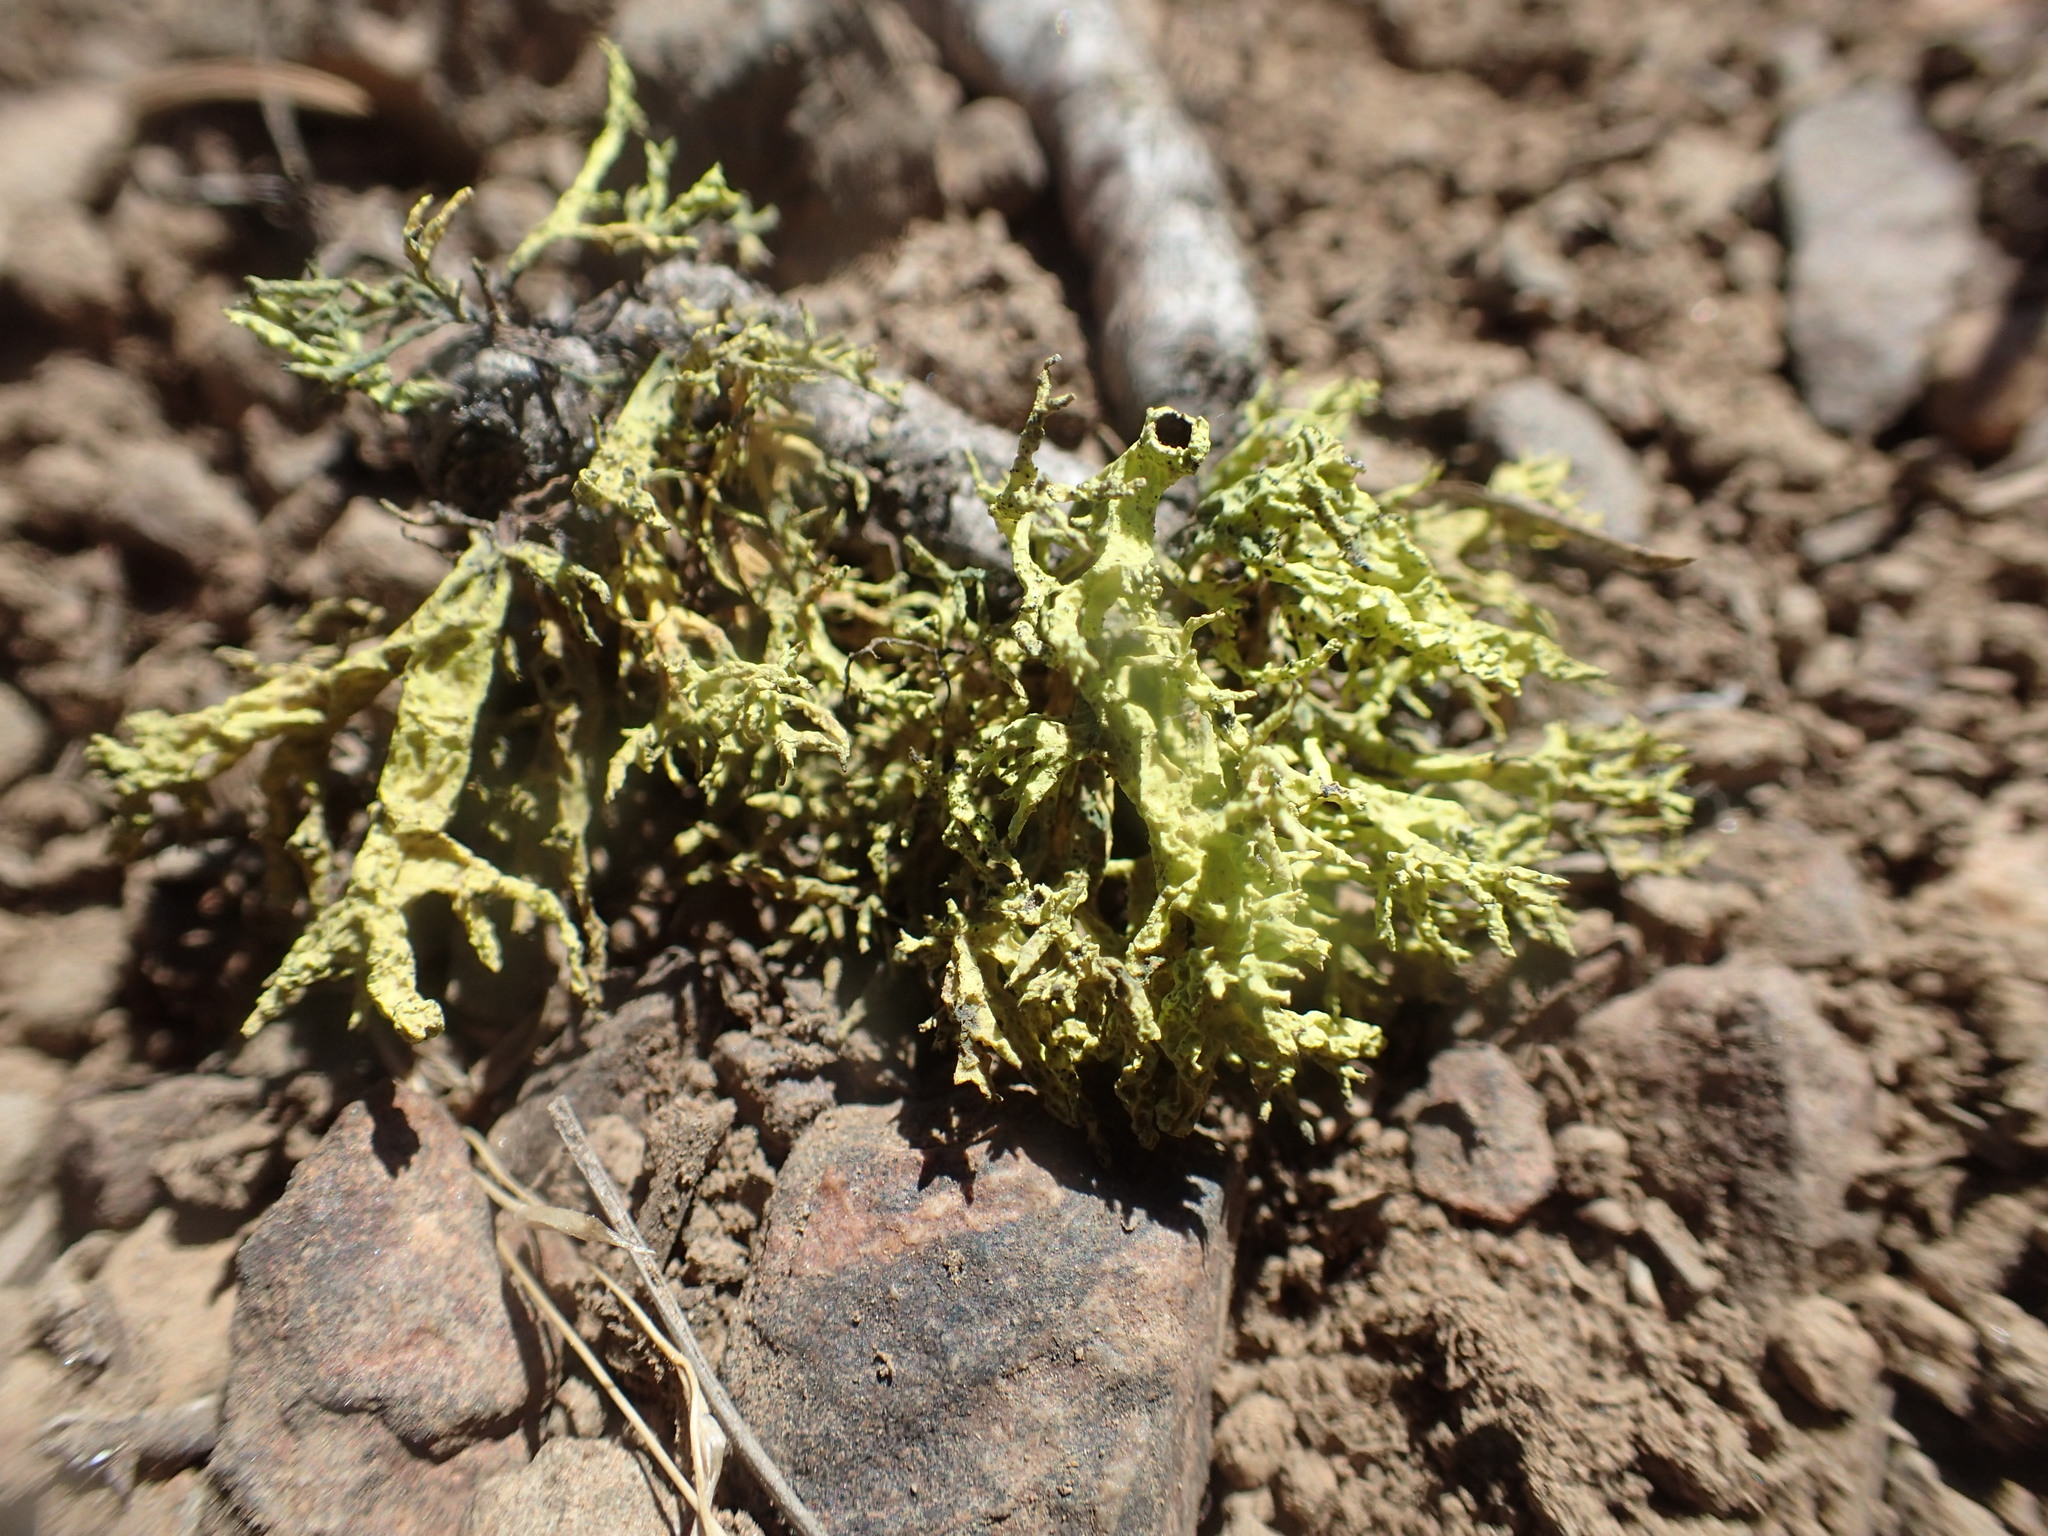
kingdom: Fungi
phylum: Ascomycota
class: Lecanoromycetes
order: Lecanorales
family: Parmeliaceae
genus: Letharia
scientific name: Letharia vulpina
